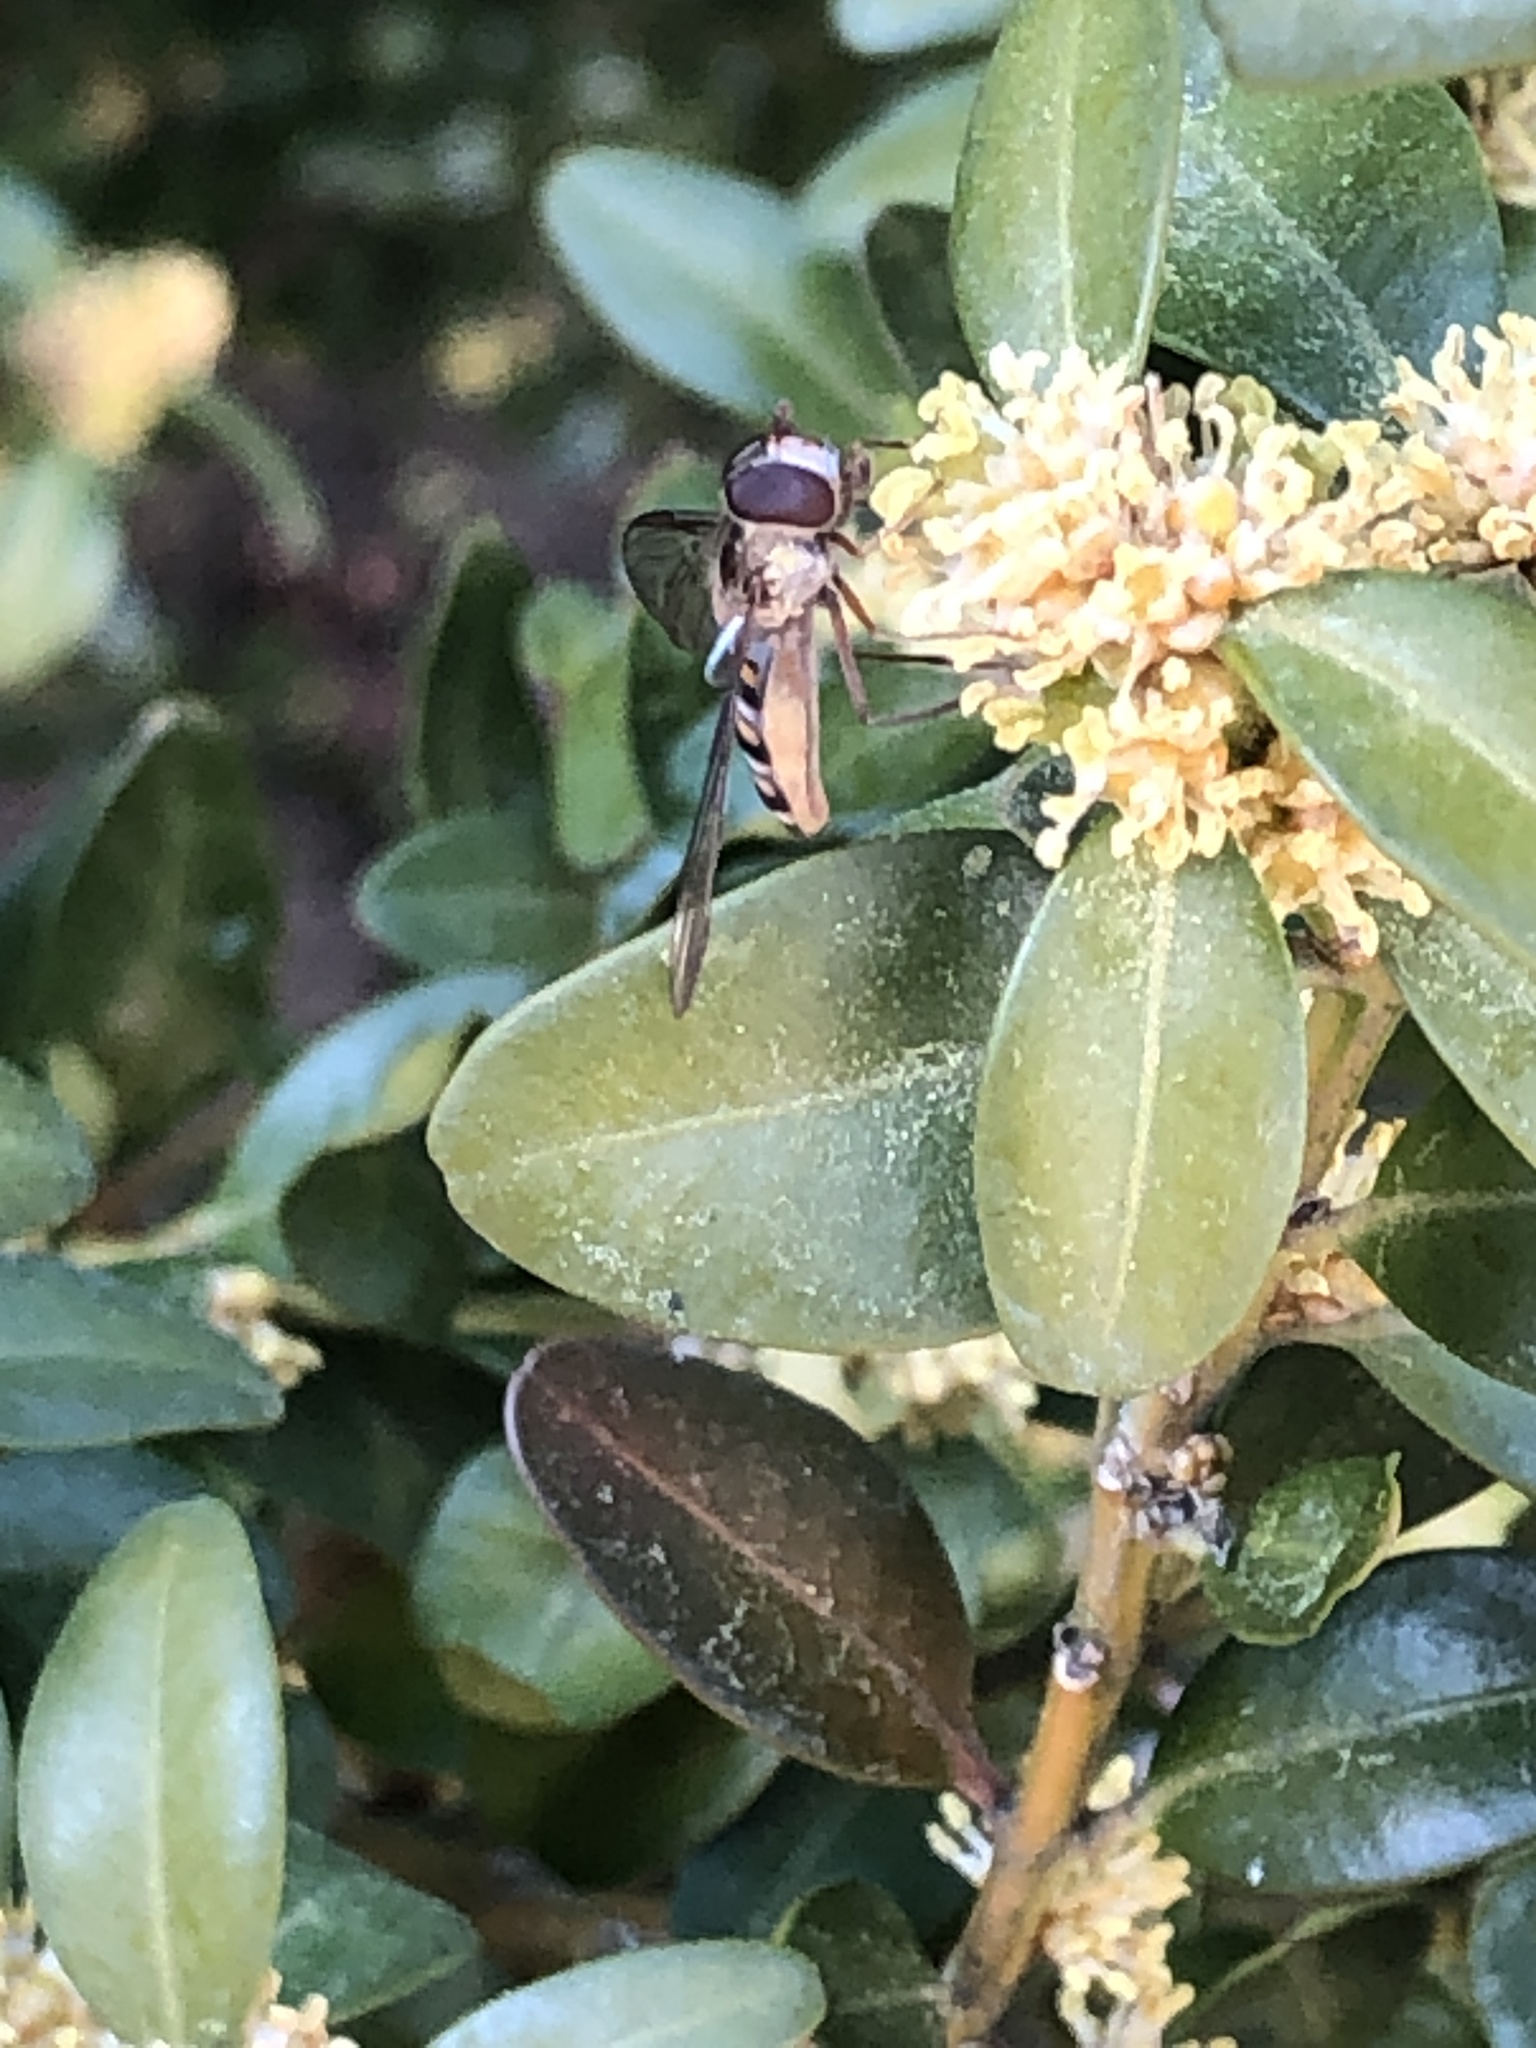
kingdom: Animalia
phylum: Arthropoda
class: Insecta
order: Diptera
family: Syrphidae
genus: Episyrphus
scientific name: Episyrphus balteatus
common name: Marmalade hoverfly
